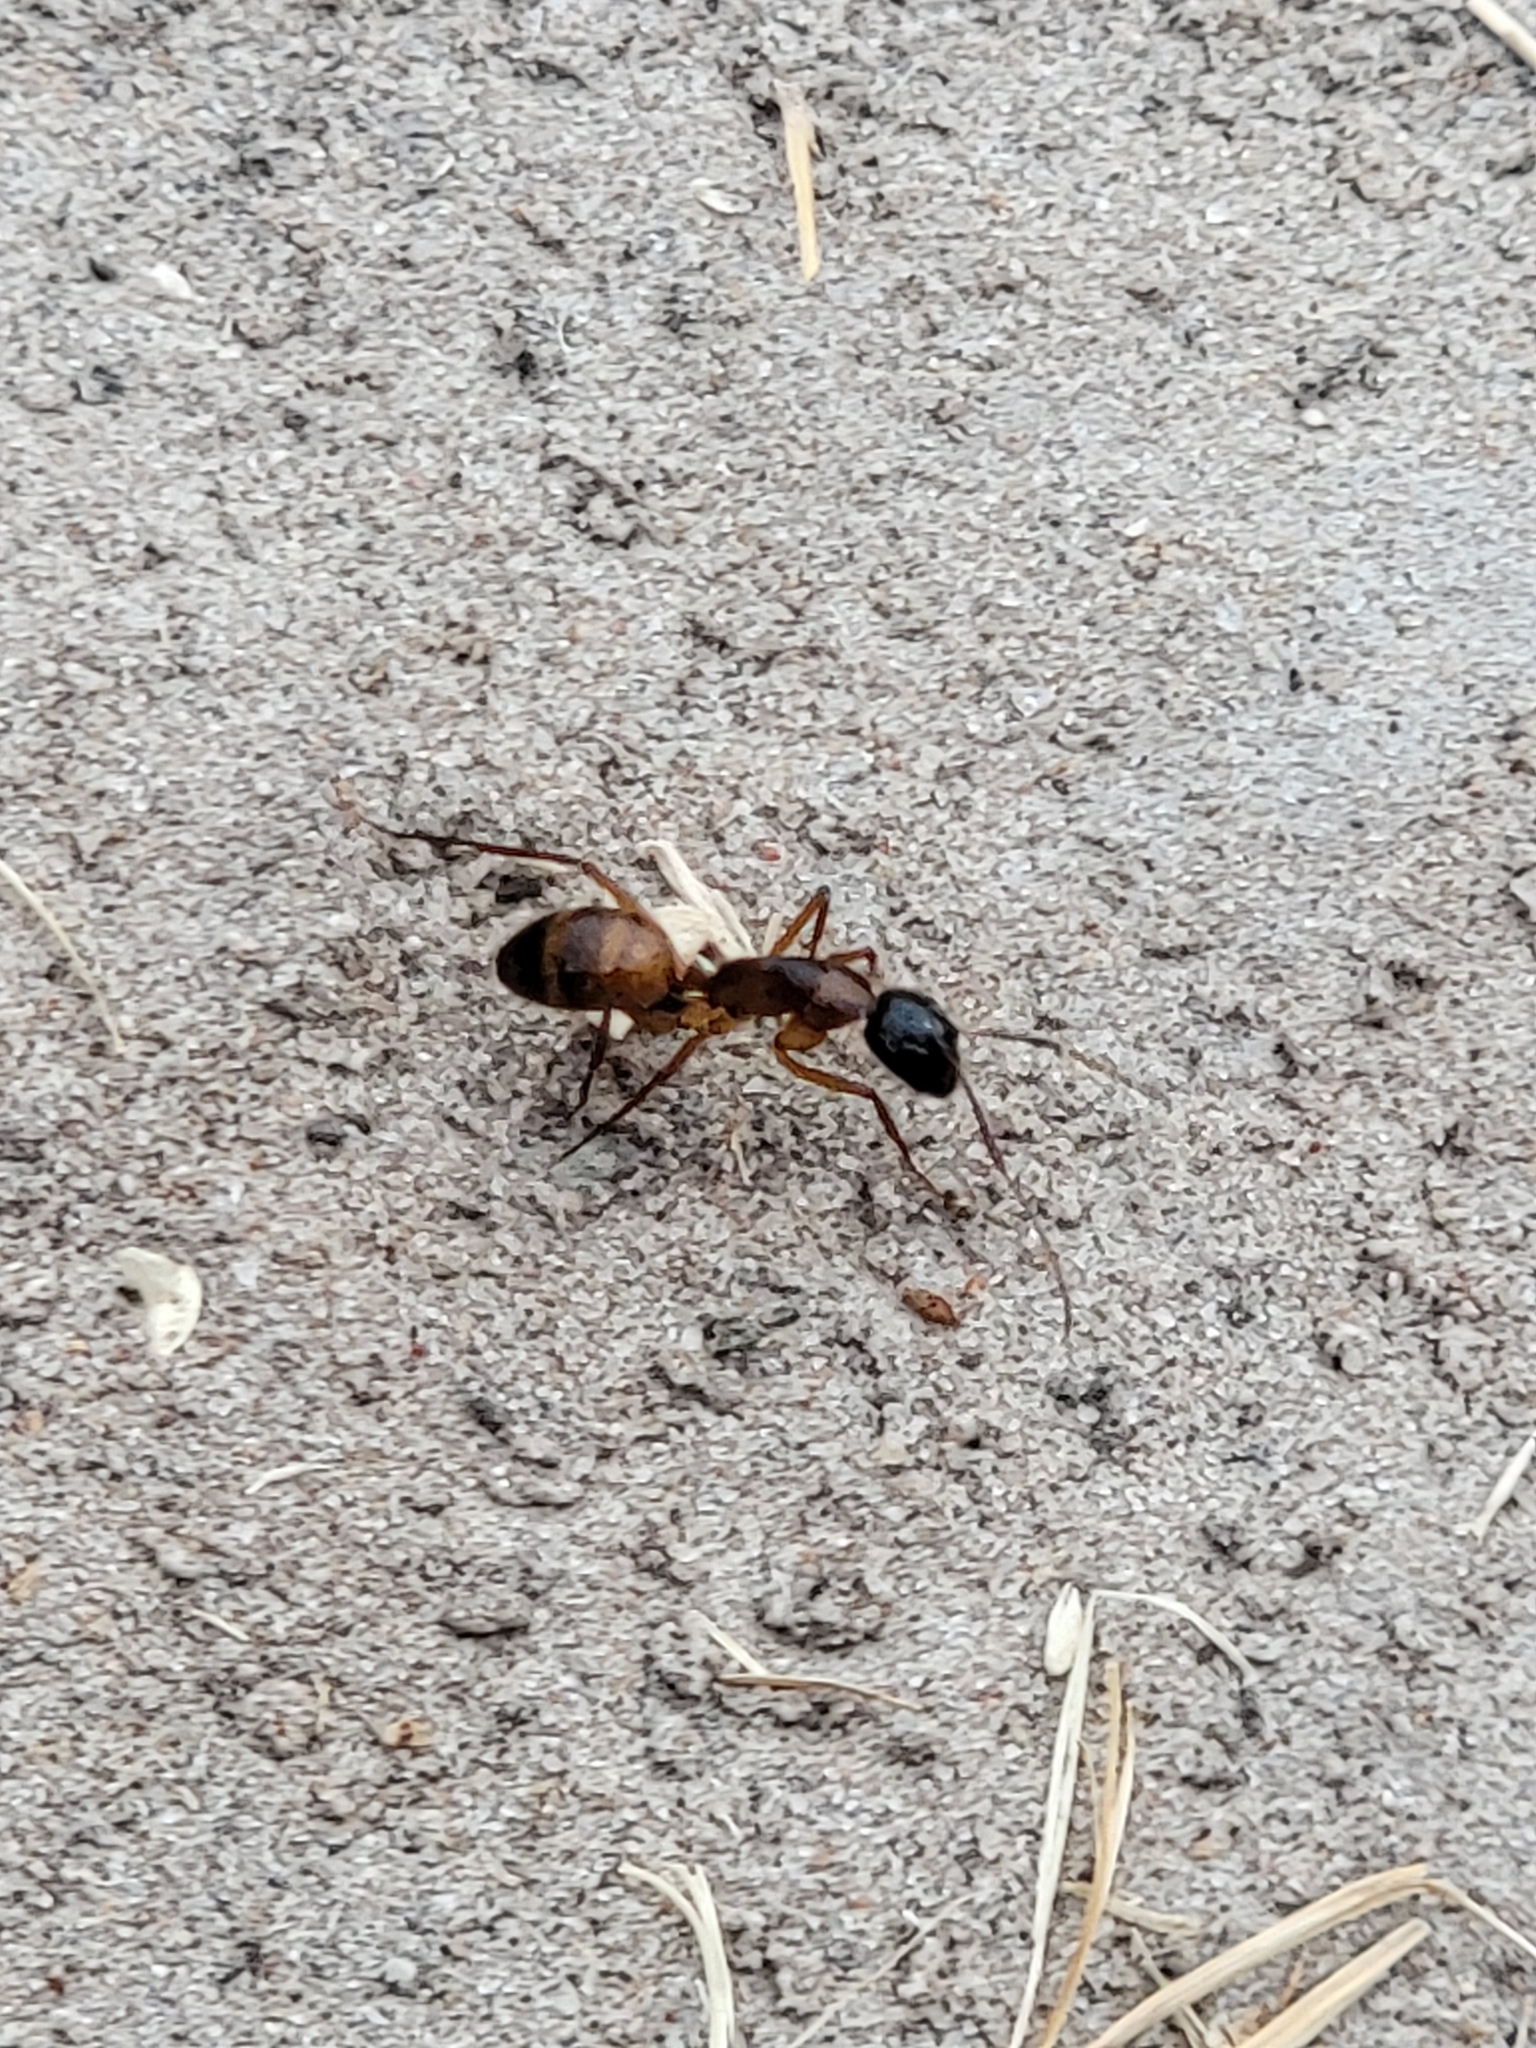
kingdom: Animalia
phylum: Arthropoda
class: Insecta
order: Hymenoptera
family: Formicidae
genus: Camponotus
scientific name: Camponotus americanus
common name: American carpenter ant
